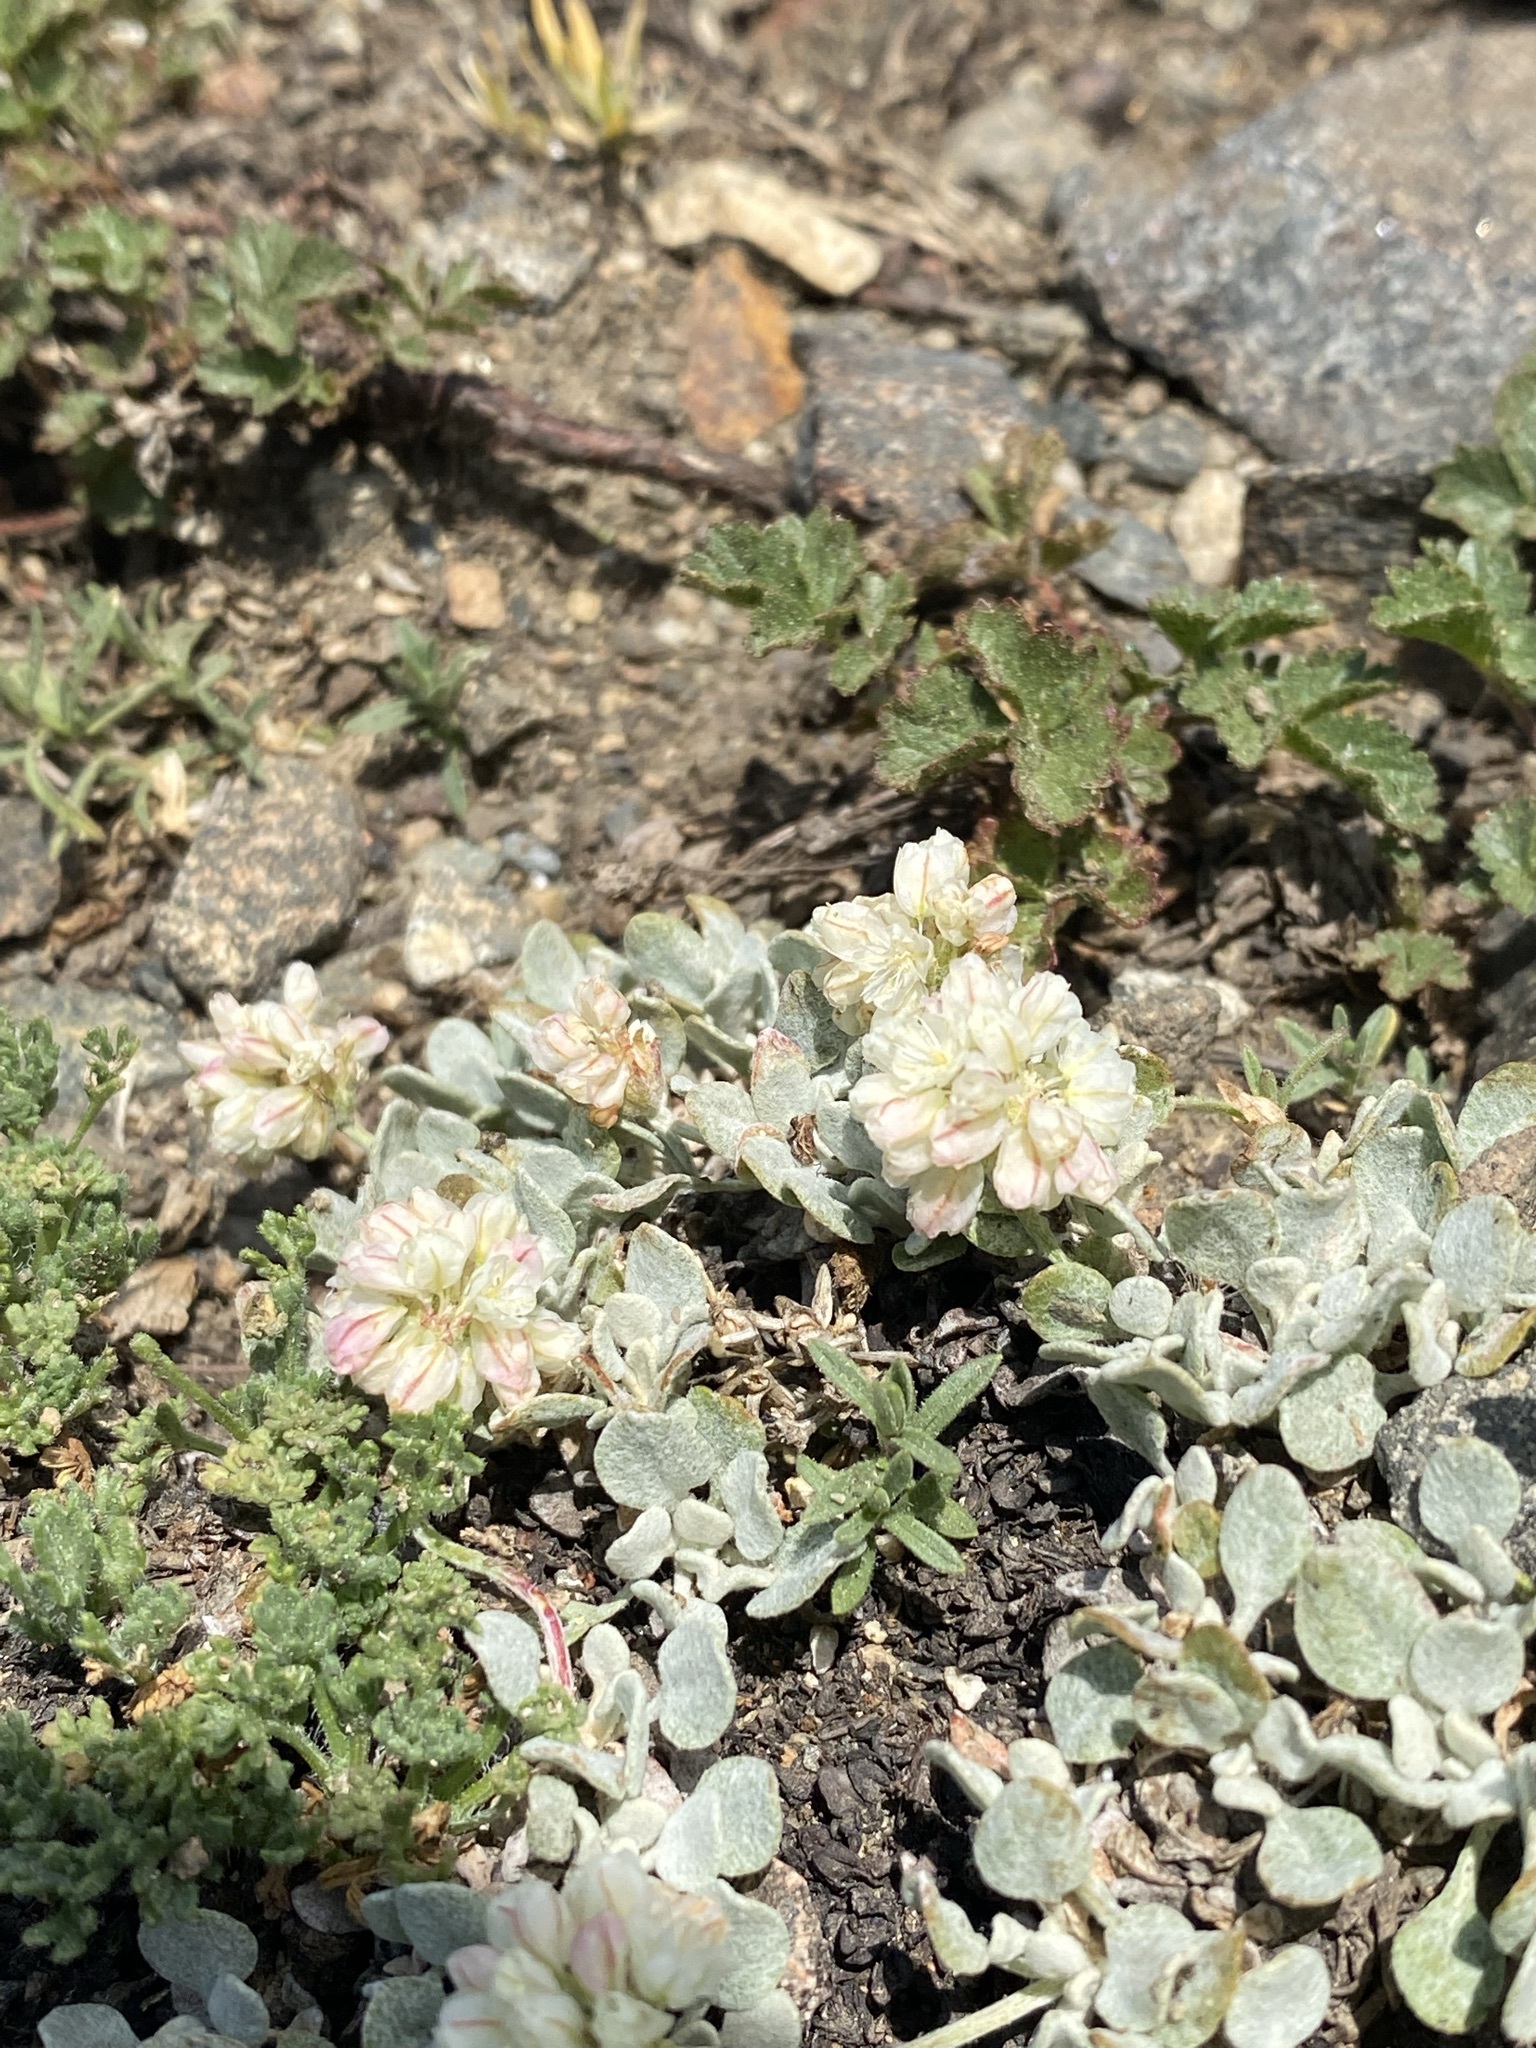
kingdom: Plantae
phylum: Tracheophyta
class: Magnoliopsida
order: Caryophyllales
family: Polygonaceae
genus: Eriogonum
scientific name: Eriogonum ovalifolium
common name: Cushion buckwheat
